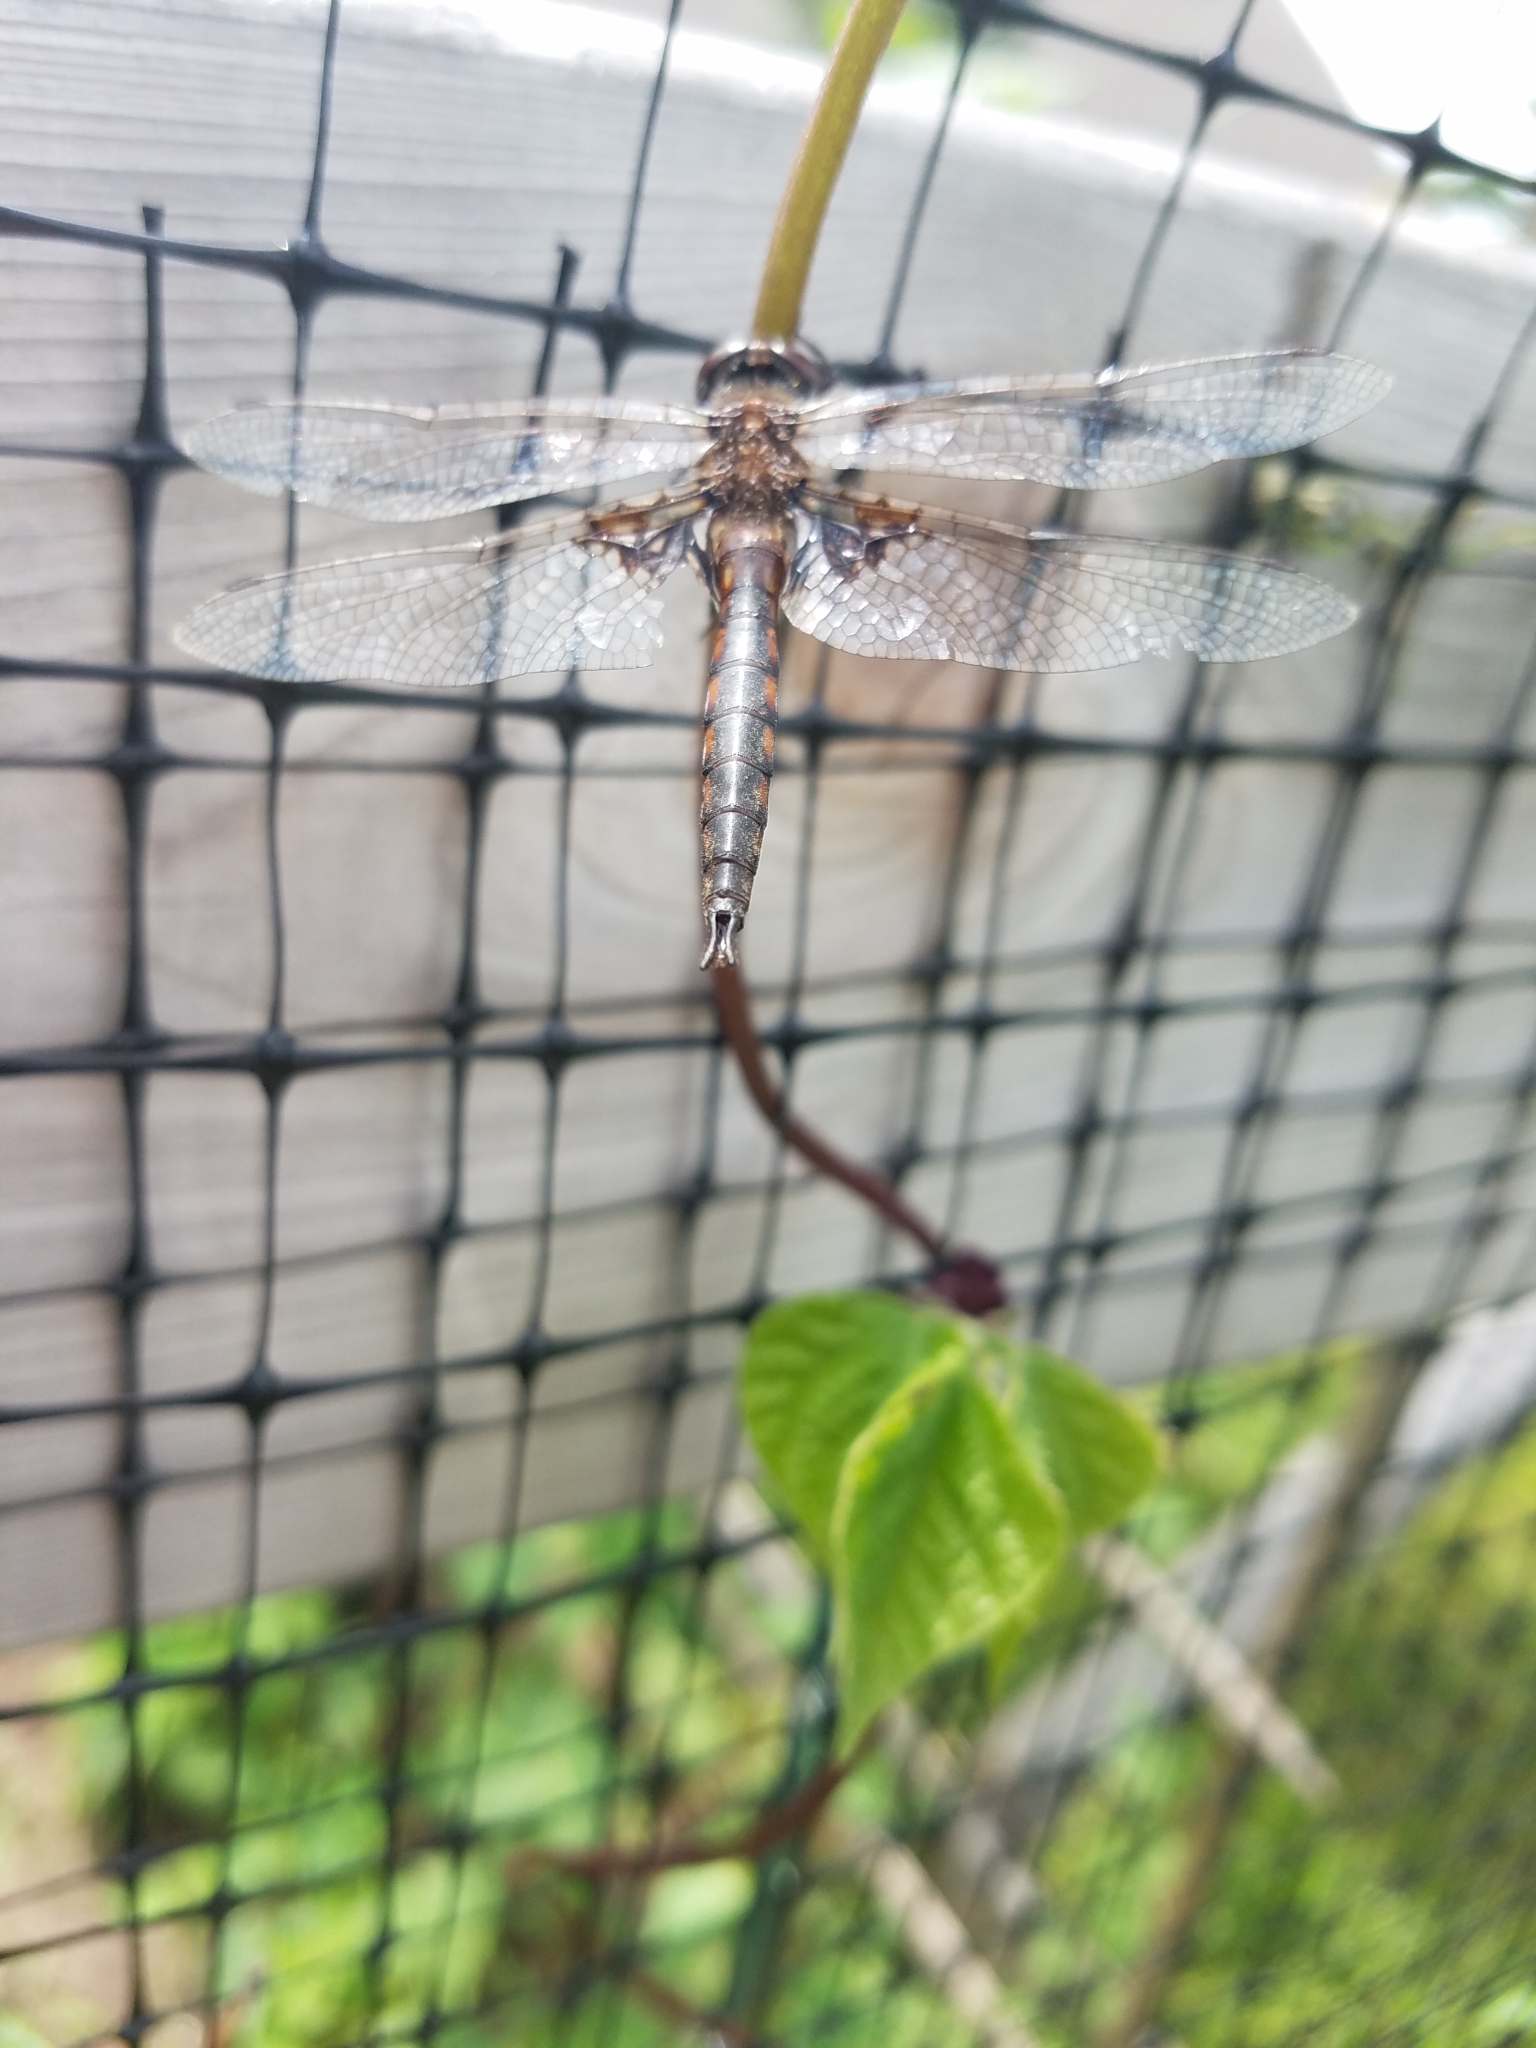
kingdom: Animalia
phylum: Arthropoda
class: Insecta
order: Odonata
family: Corduliidae
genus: Epitheca
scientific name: Epitheca cynosura
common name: Common baskettail
